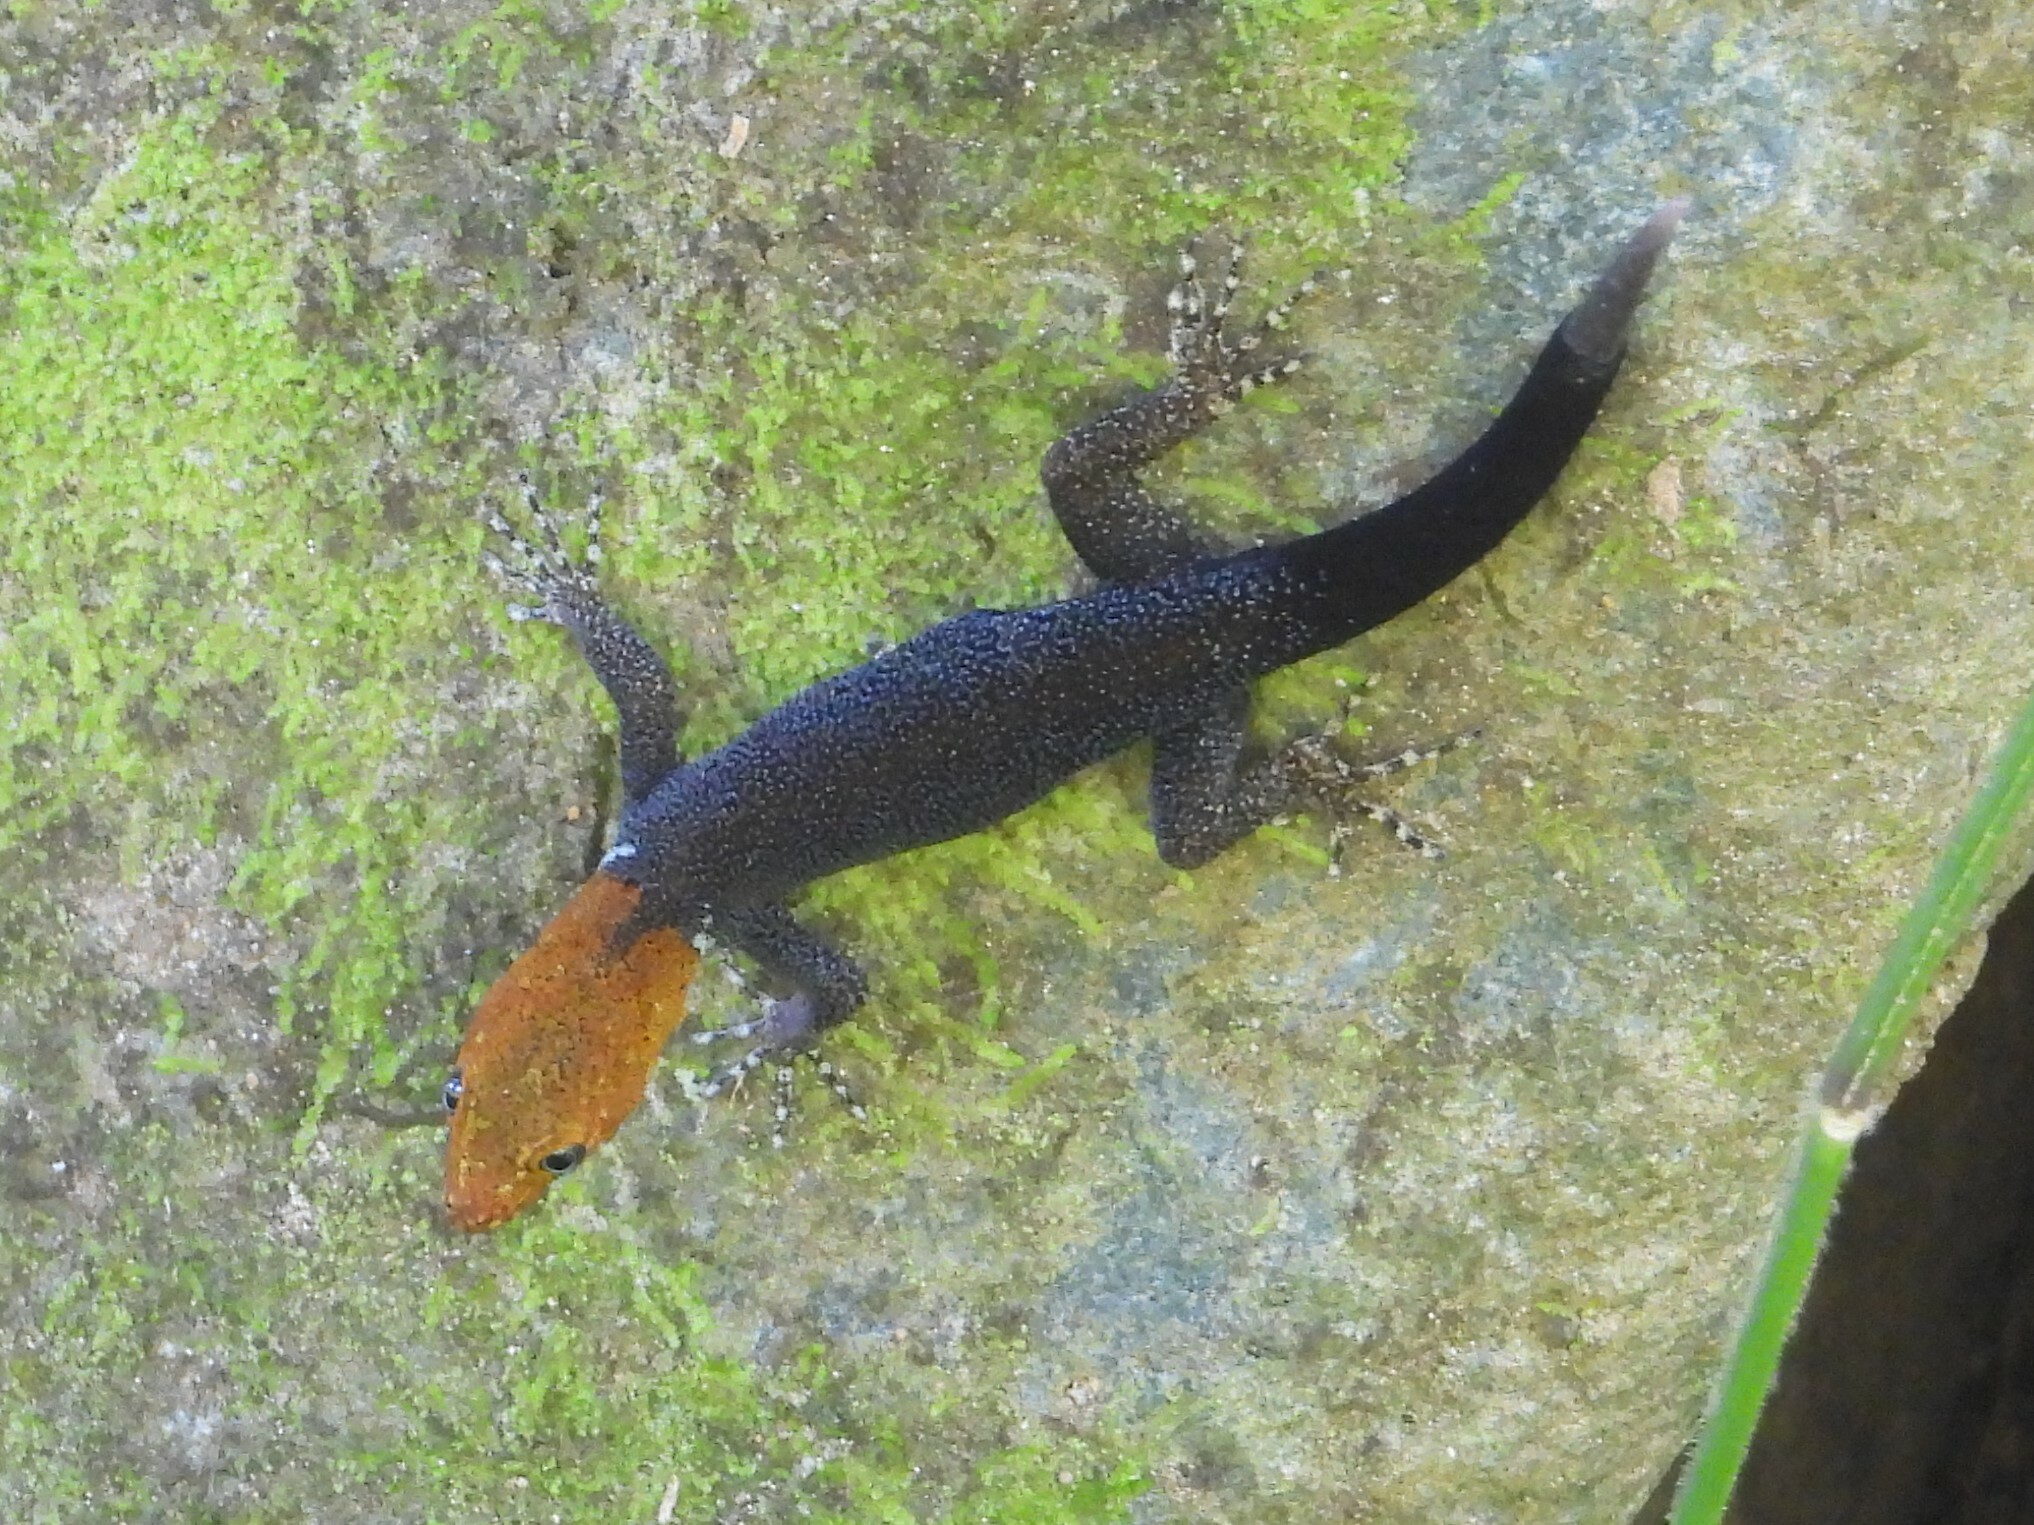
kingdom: Animalia
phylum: Chordata
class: Squamata
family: Sphaerodactylidae
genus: Gonatodes
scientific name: Gonatodes albogularis
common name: Yellow-headed gecko
